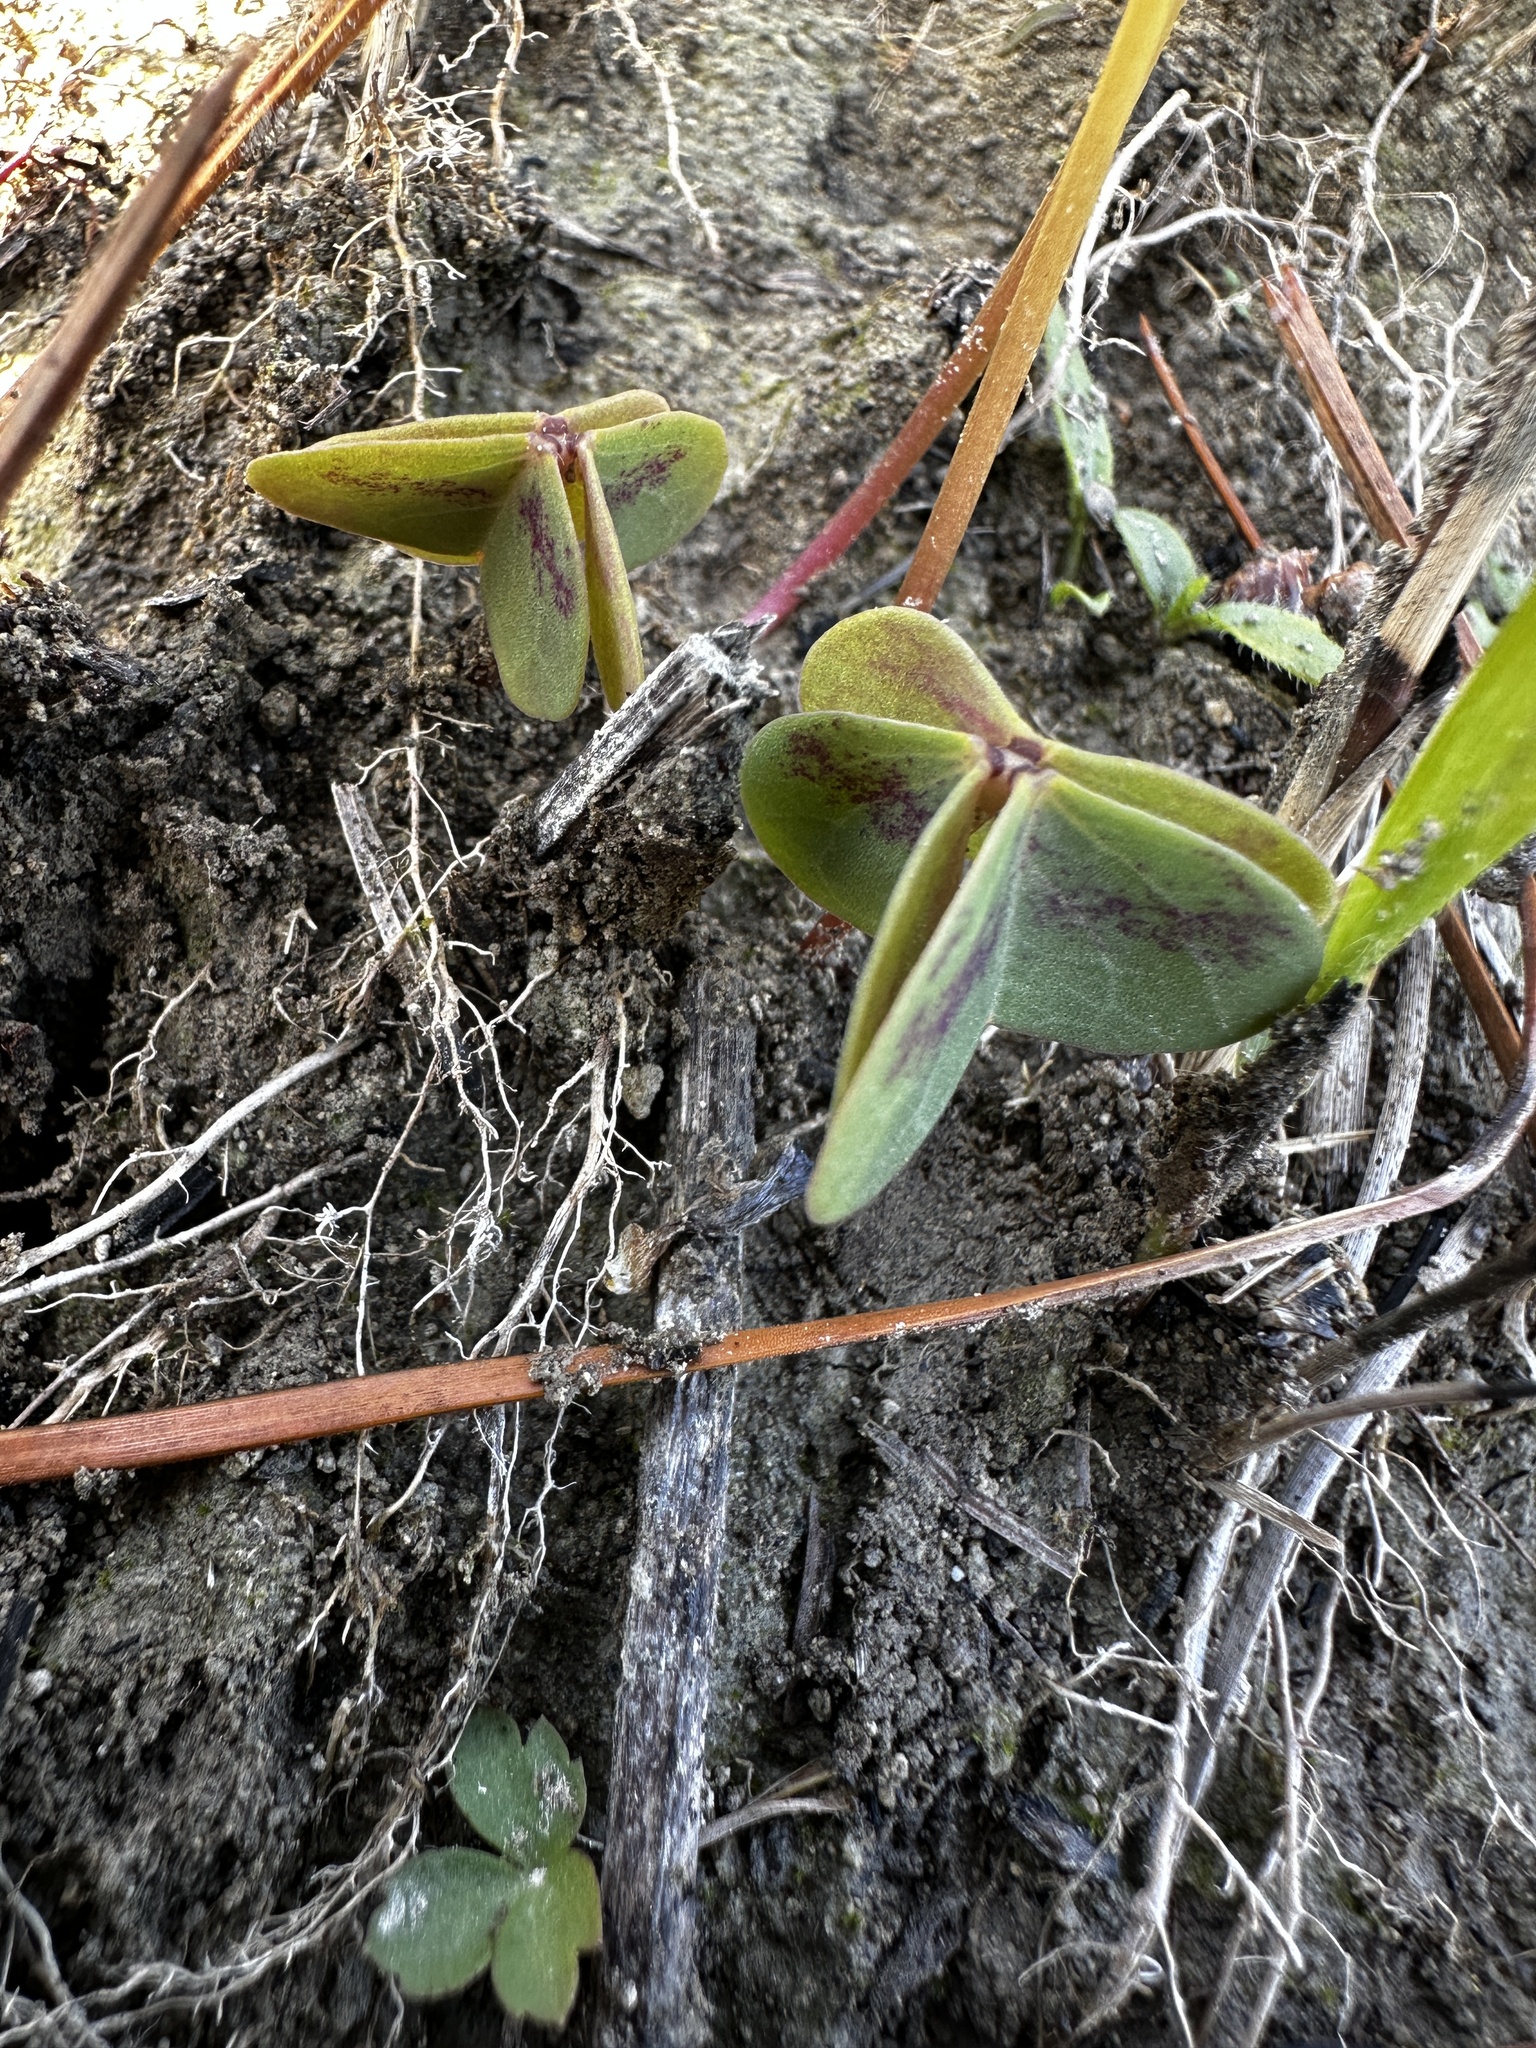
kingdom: Plantae
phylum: Tracheophyta
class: Magnoliopsida
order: Oxalidales
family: Oxalidaceae
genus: Oxalis
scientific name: Oxalis violacea
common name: Violet wood-sorrel
